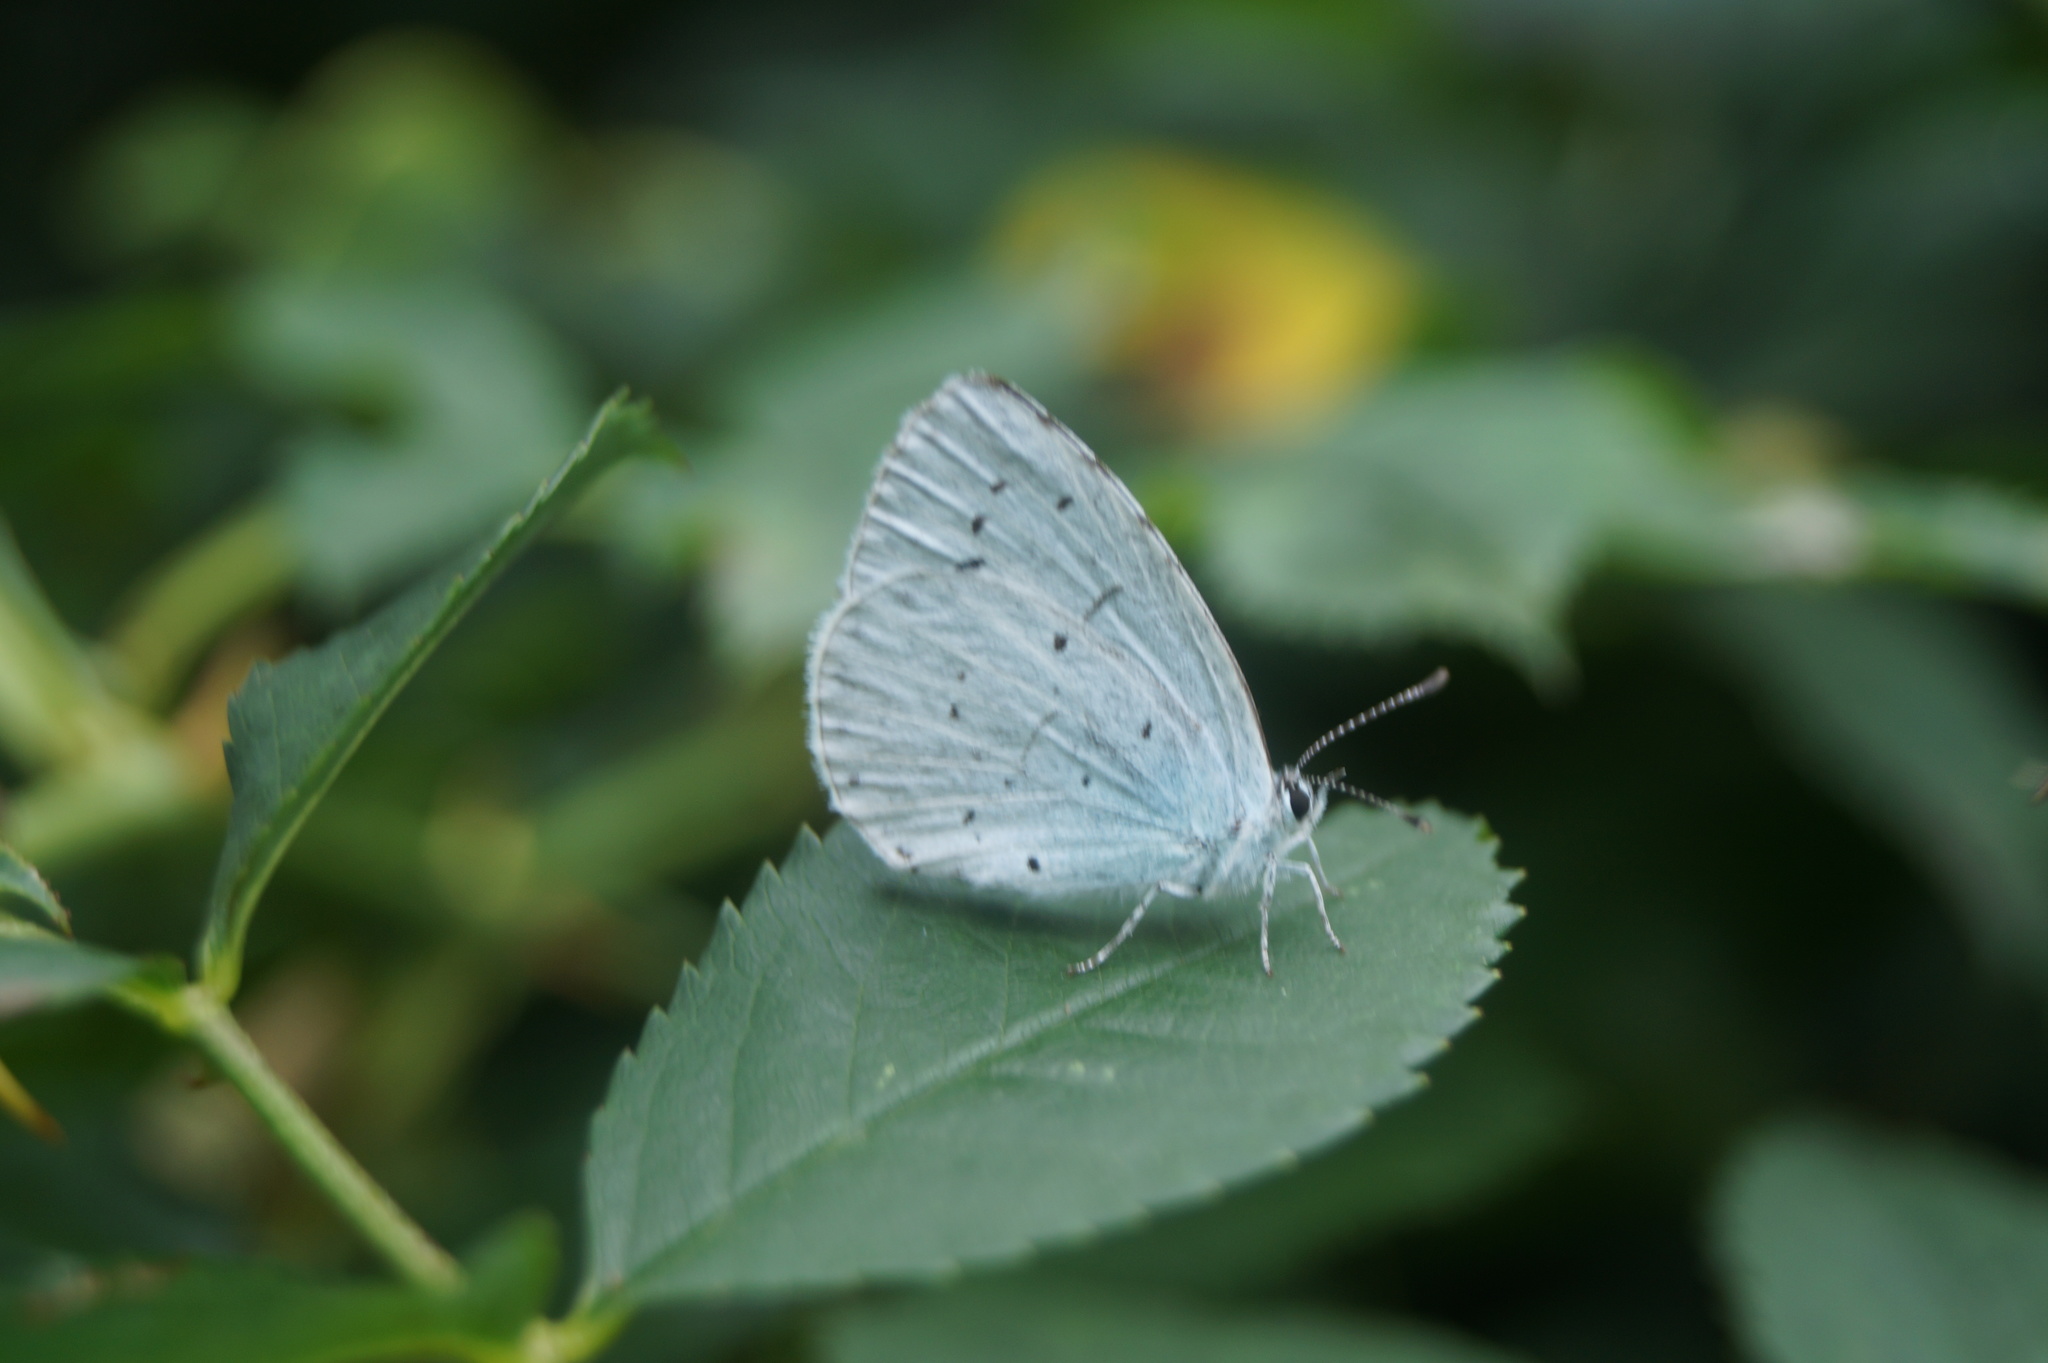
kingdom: Animalia
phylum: Arthropoda
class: Insecta
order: Lepidoptera
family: Lycaenidae
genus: Celastrina
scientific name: Celastrina argiolus
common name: Holly blue
